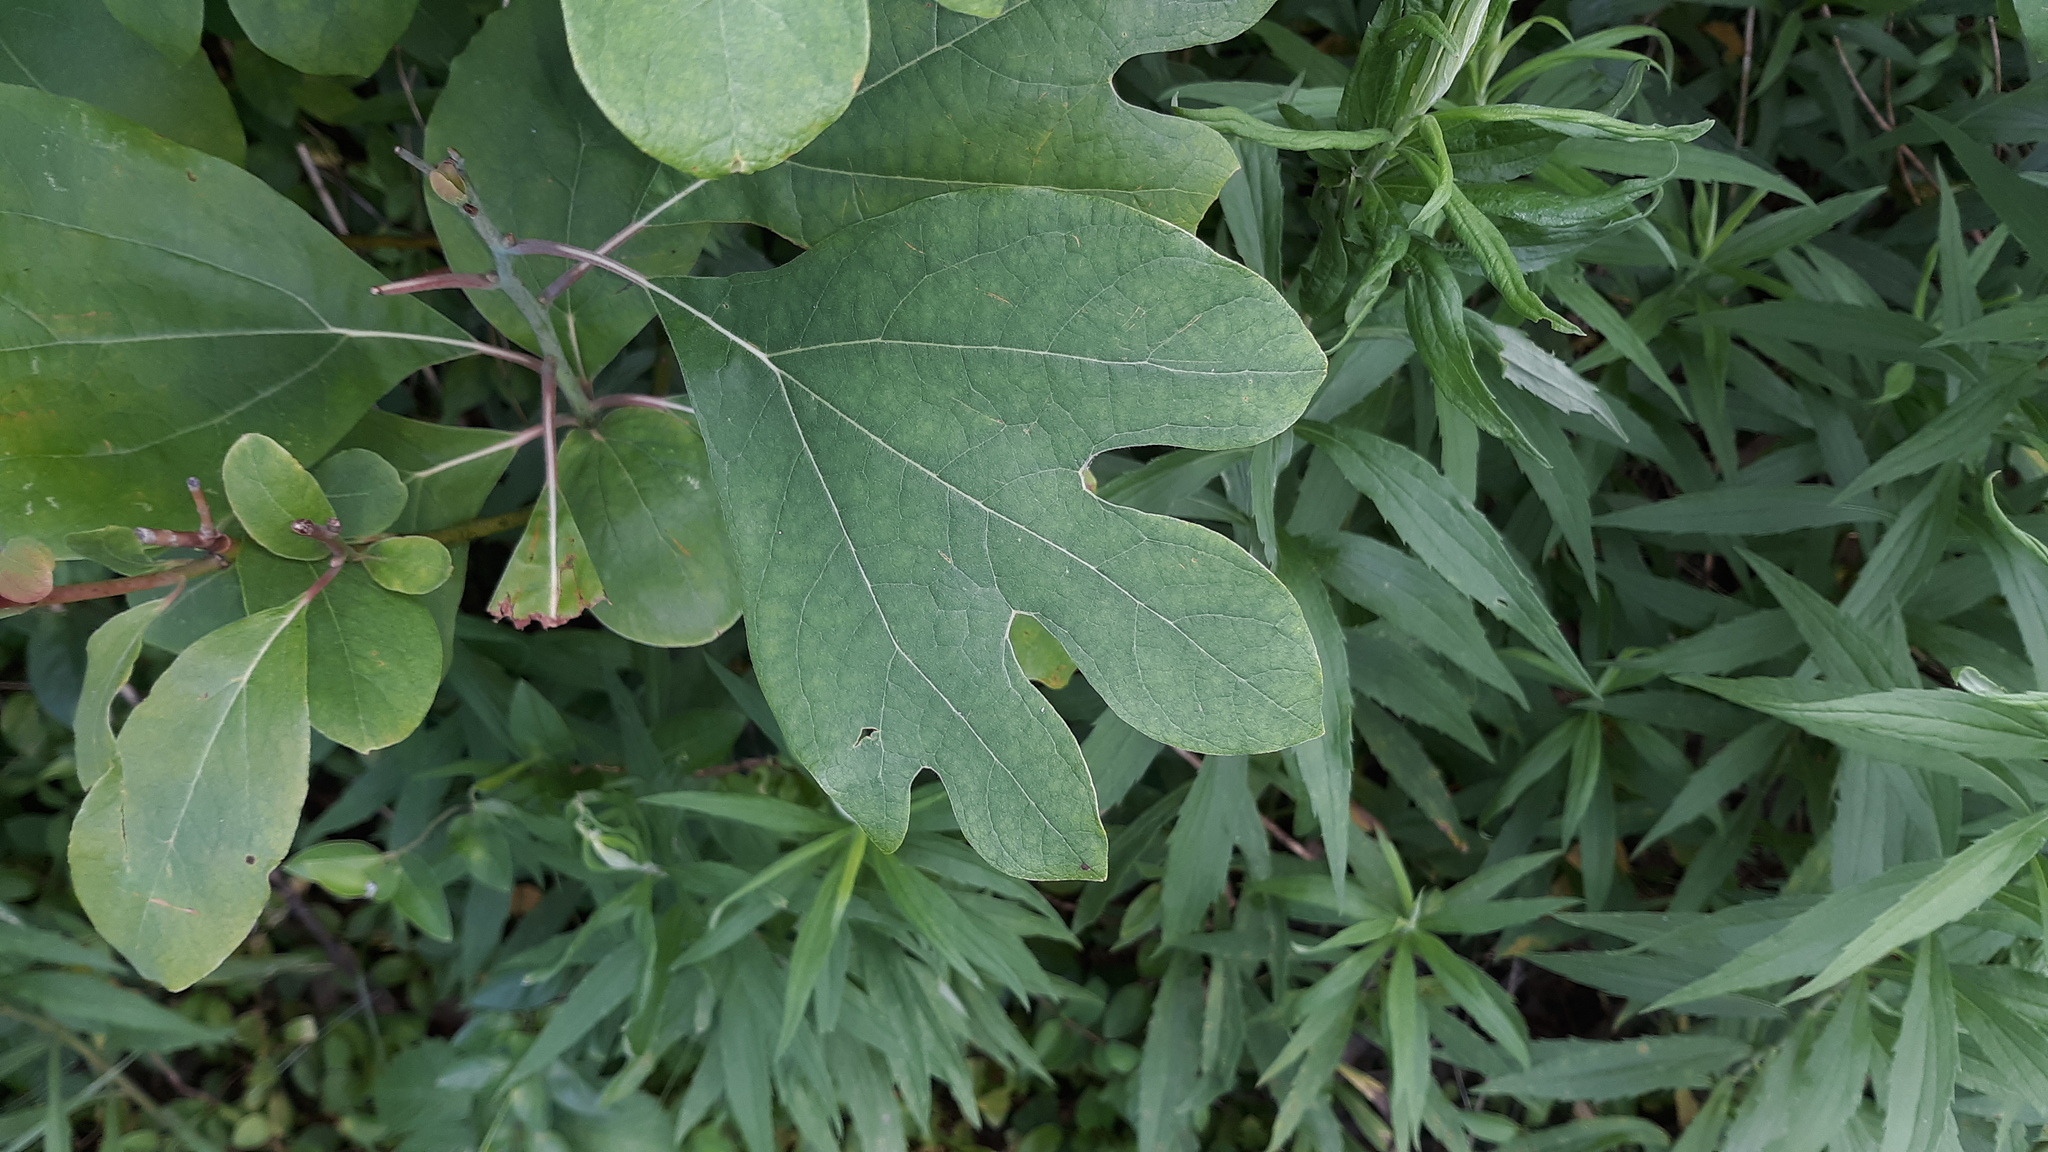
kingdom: Plantae
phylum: Tracheophyta
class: Magnoliopsida
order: Laurales
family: Lauraceae
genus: Sassafras
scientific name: Sassafras albidum
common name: Sassafras
